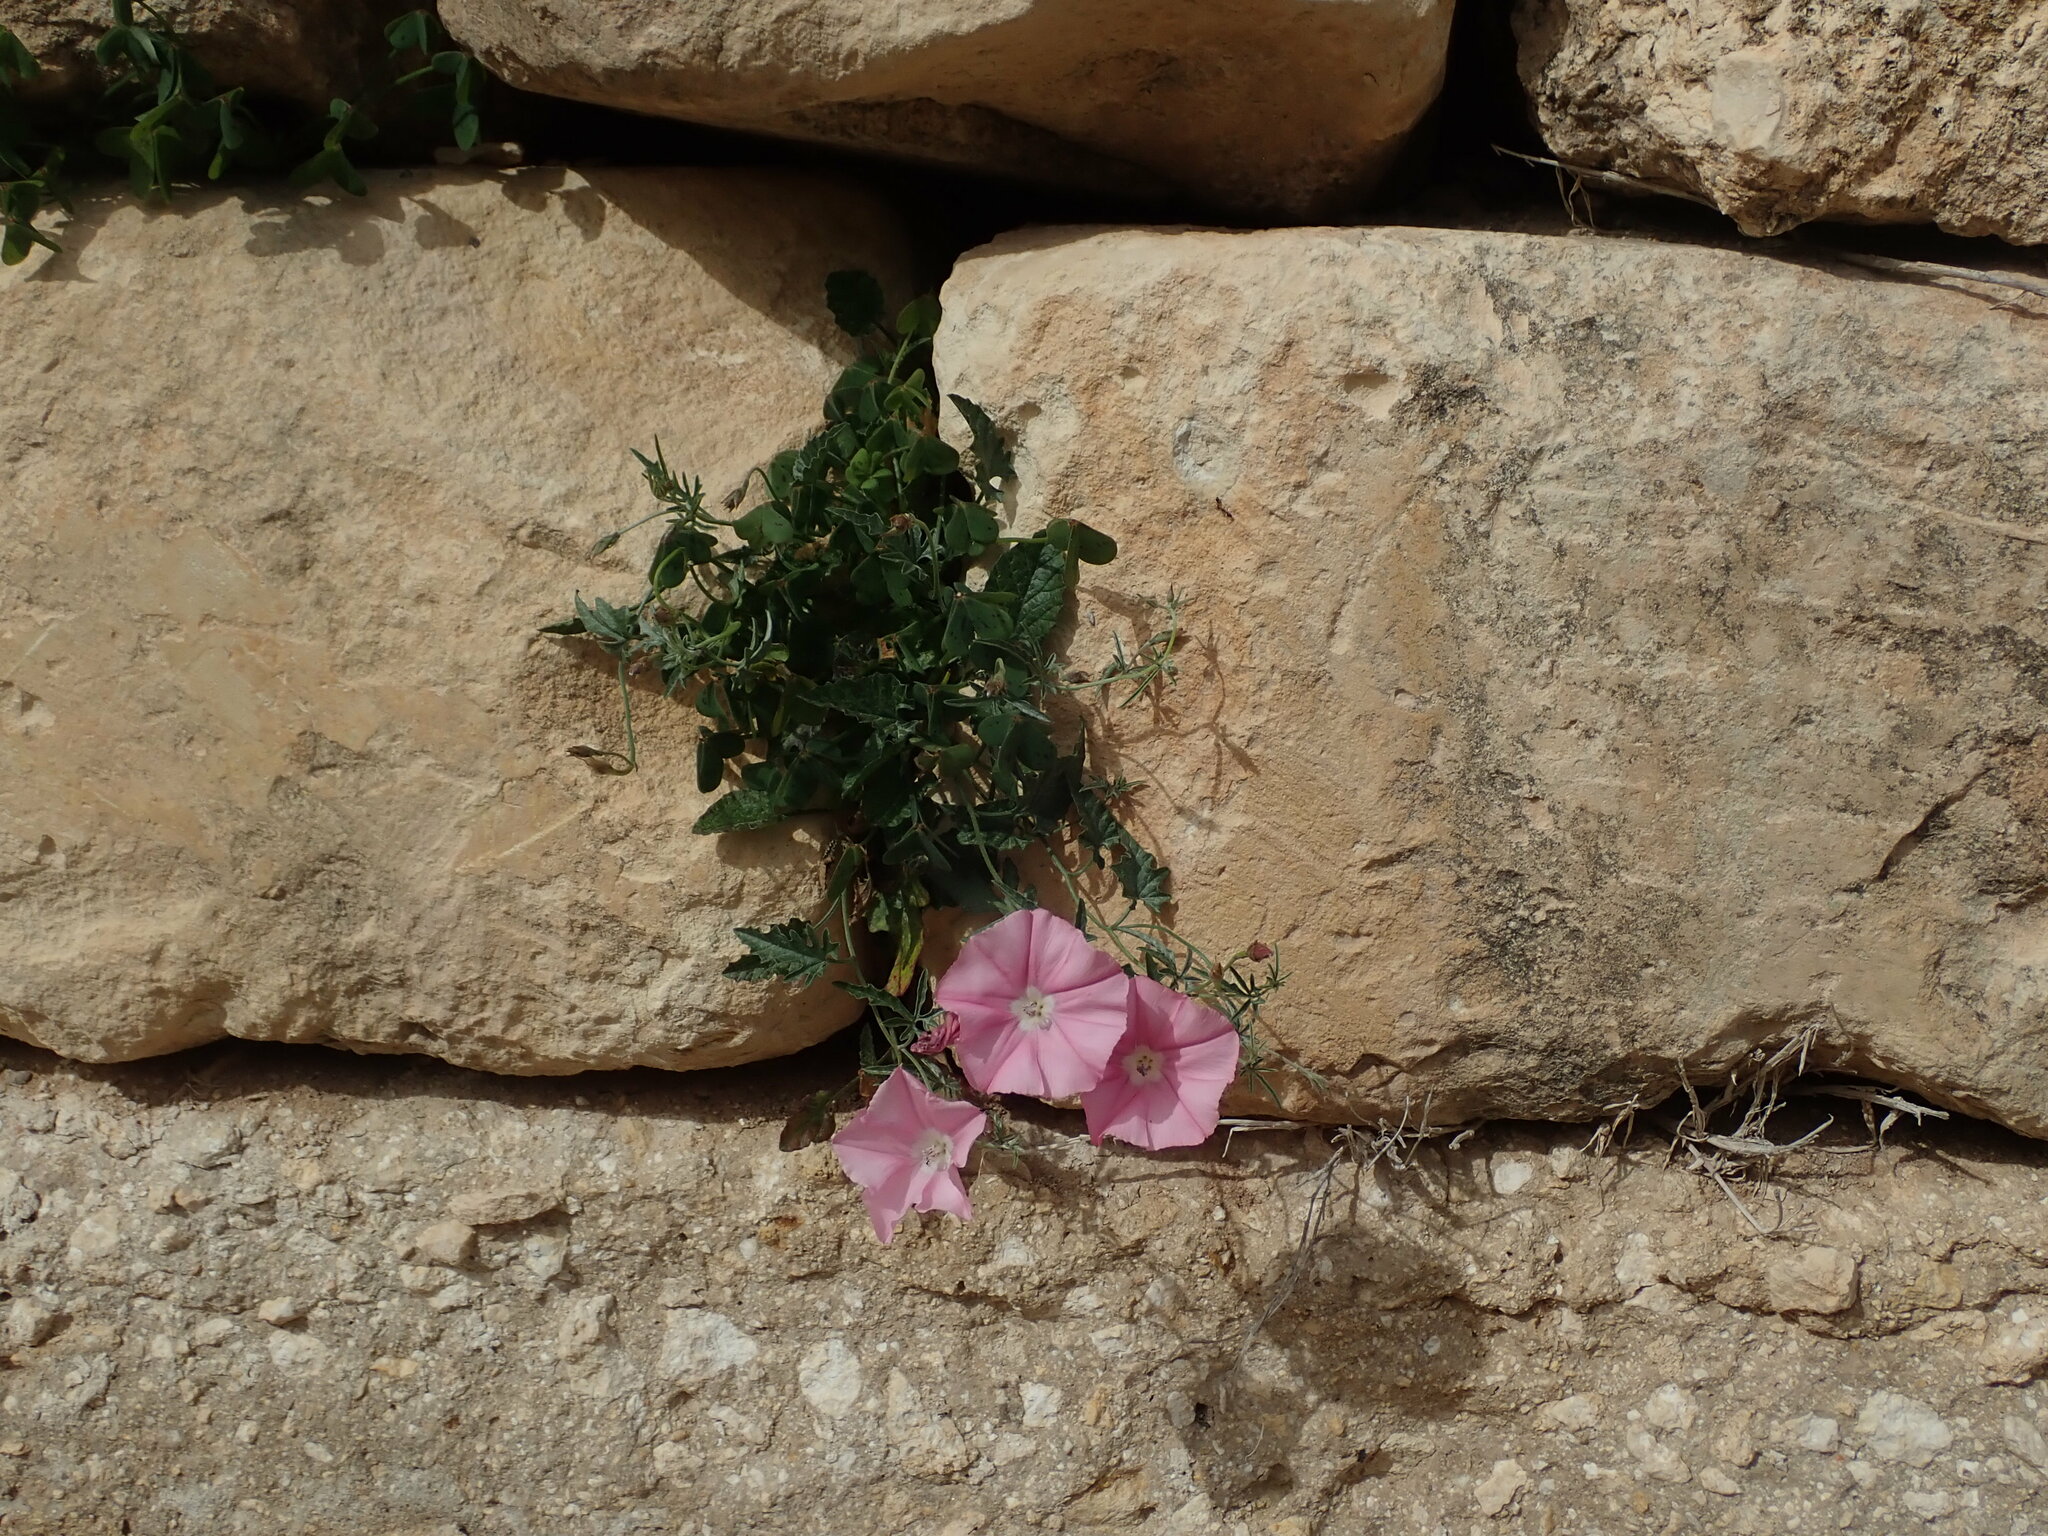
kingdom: Plantae
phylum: Tracheophyta
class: Magnoliopsida
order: Solanales
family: Convolvulaceae
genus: Convolvulus
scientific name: Convolvulus elegantissimus
